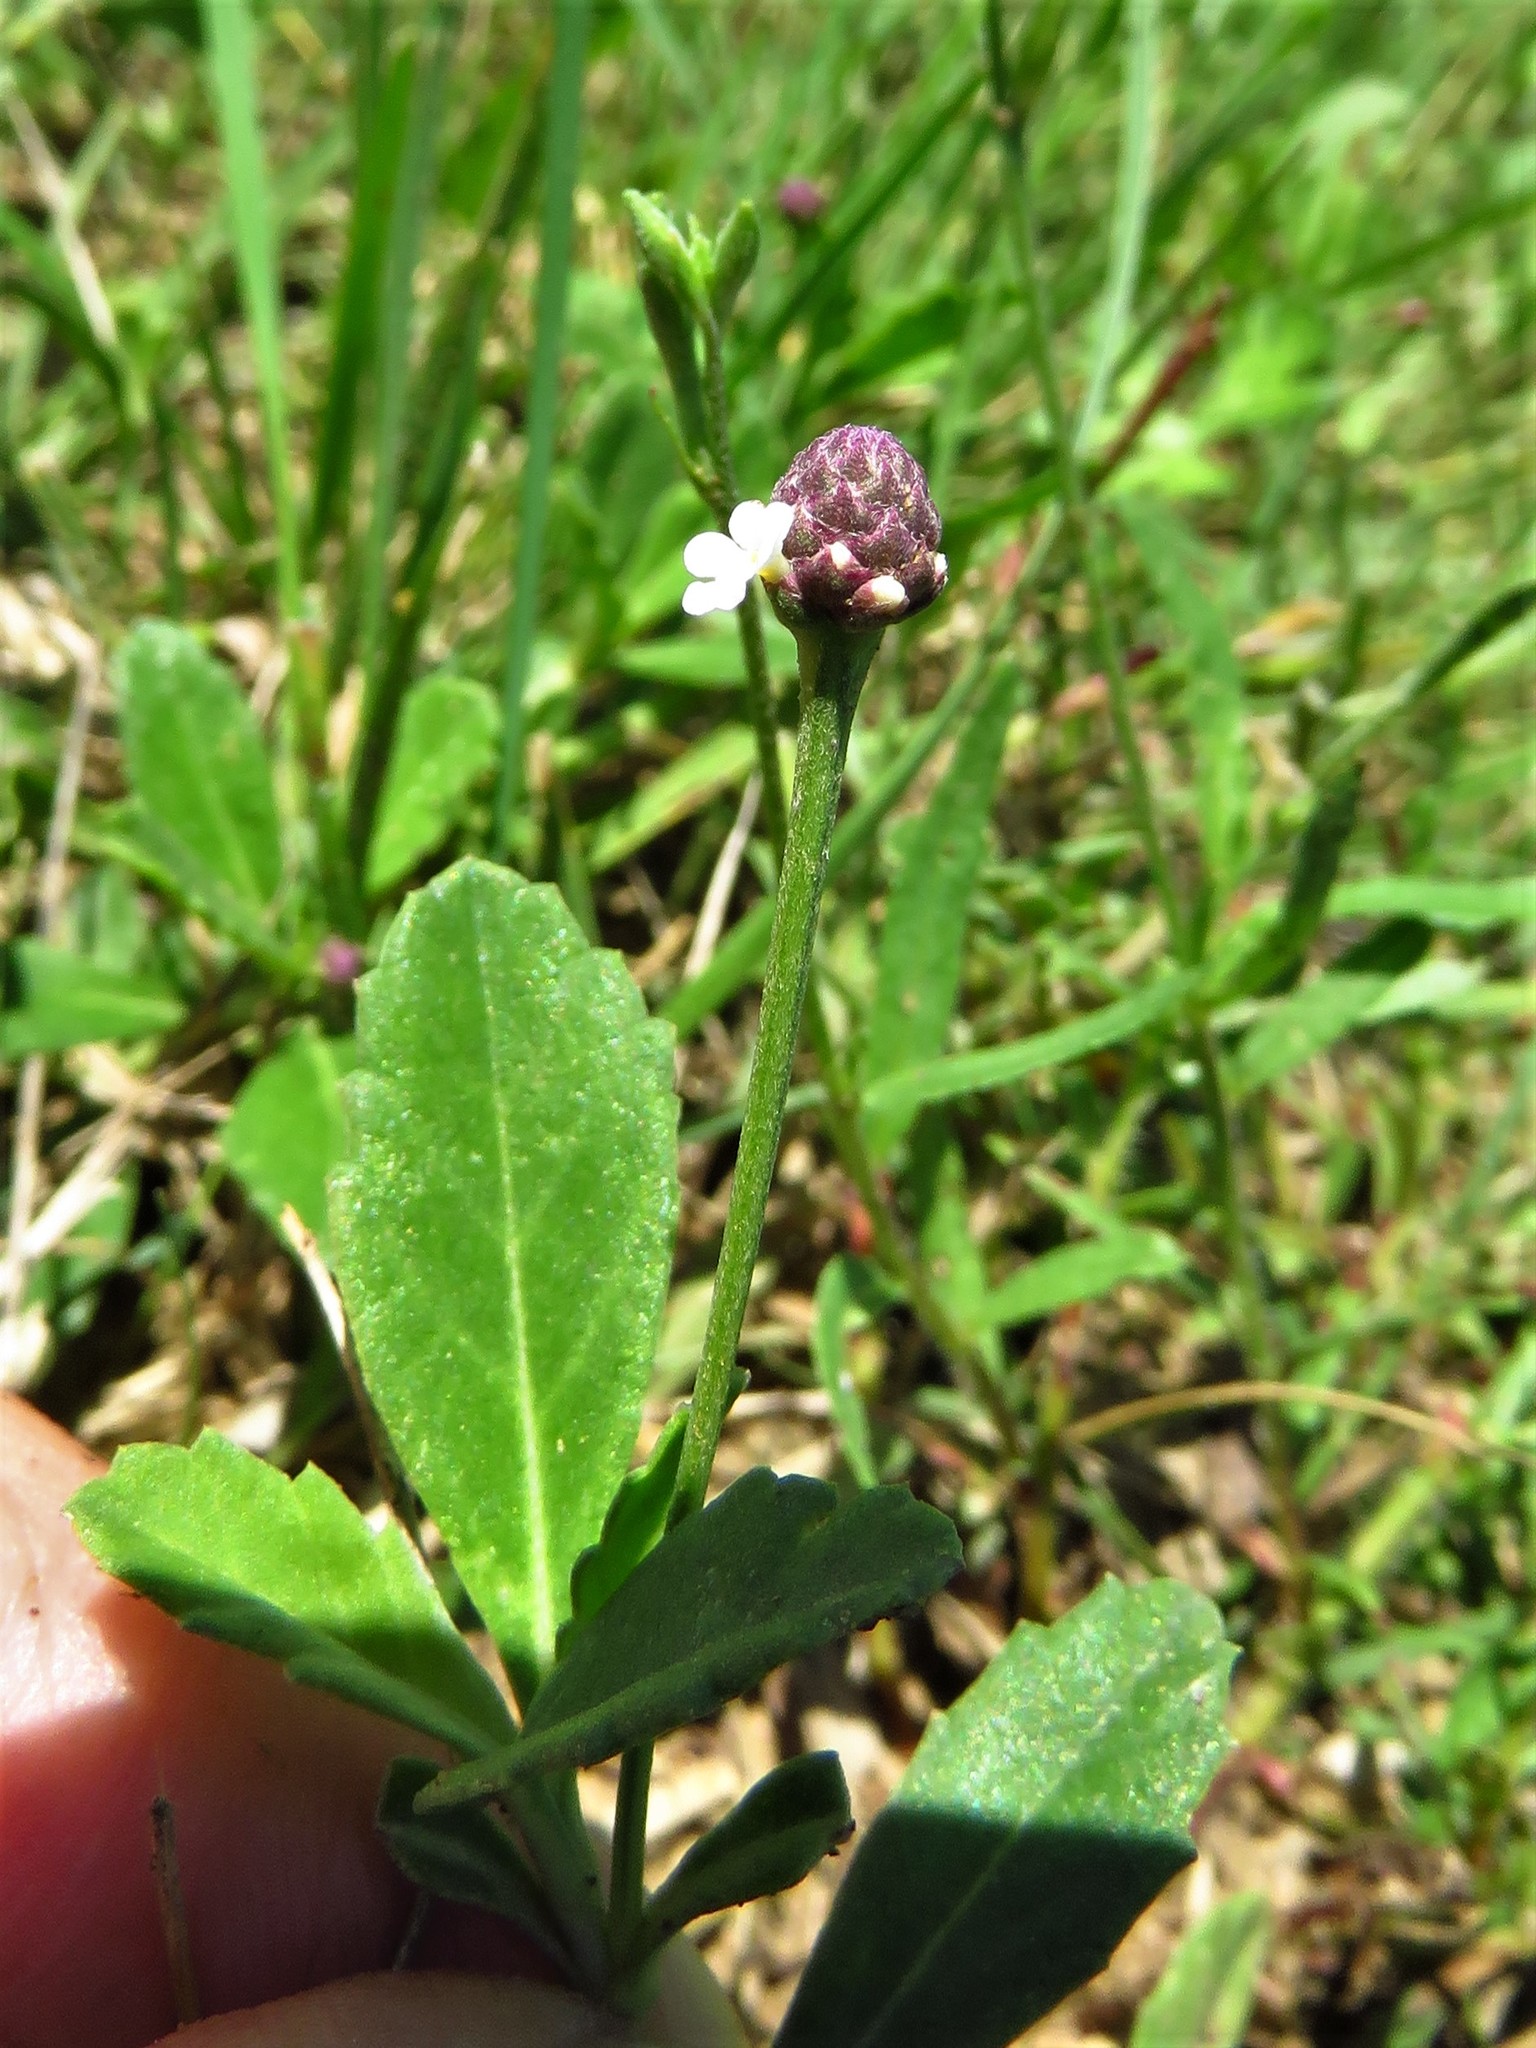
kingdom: Plantae
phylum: Tracheophyta
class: Magnoliopsida
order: Lamiales
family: Verbenaceae
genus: Phyla
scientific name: Phyla nodiflora
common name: Frogfruit
